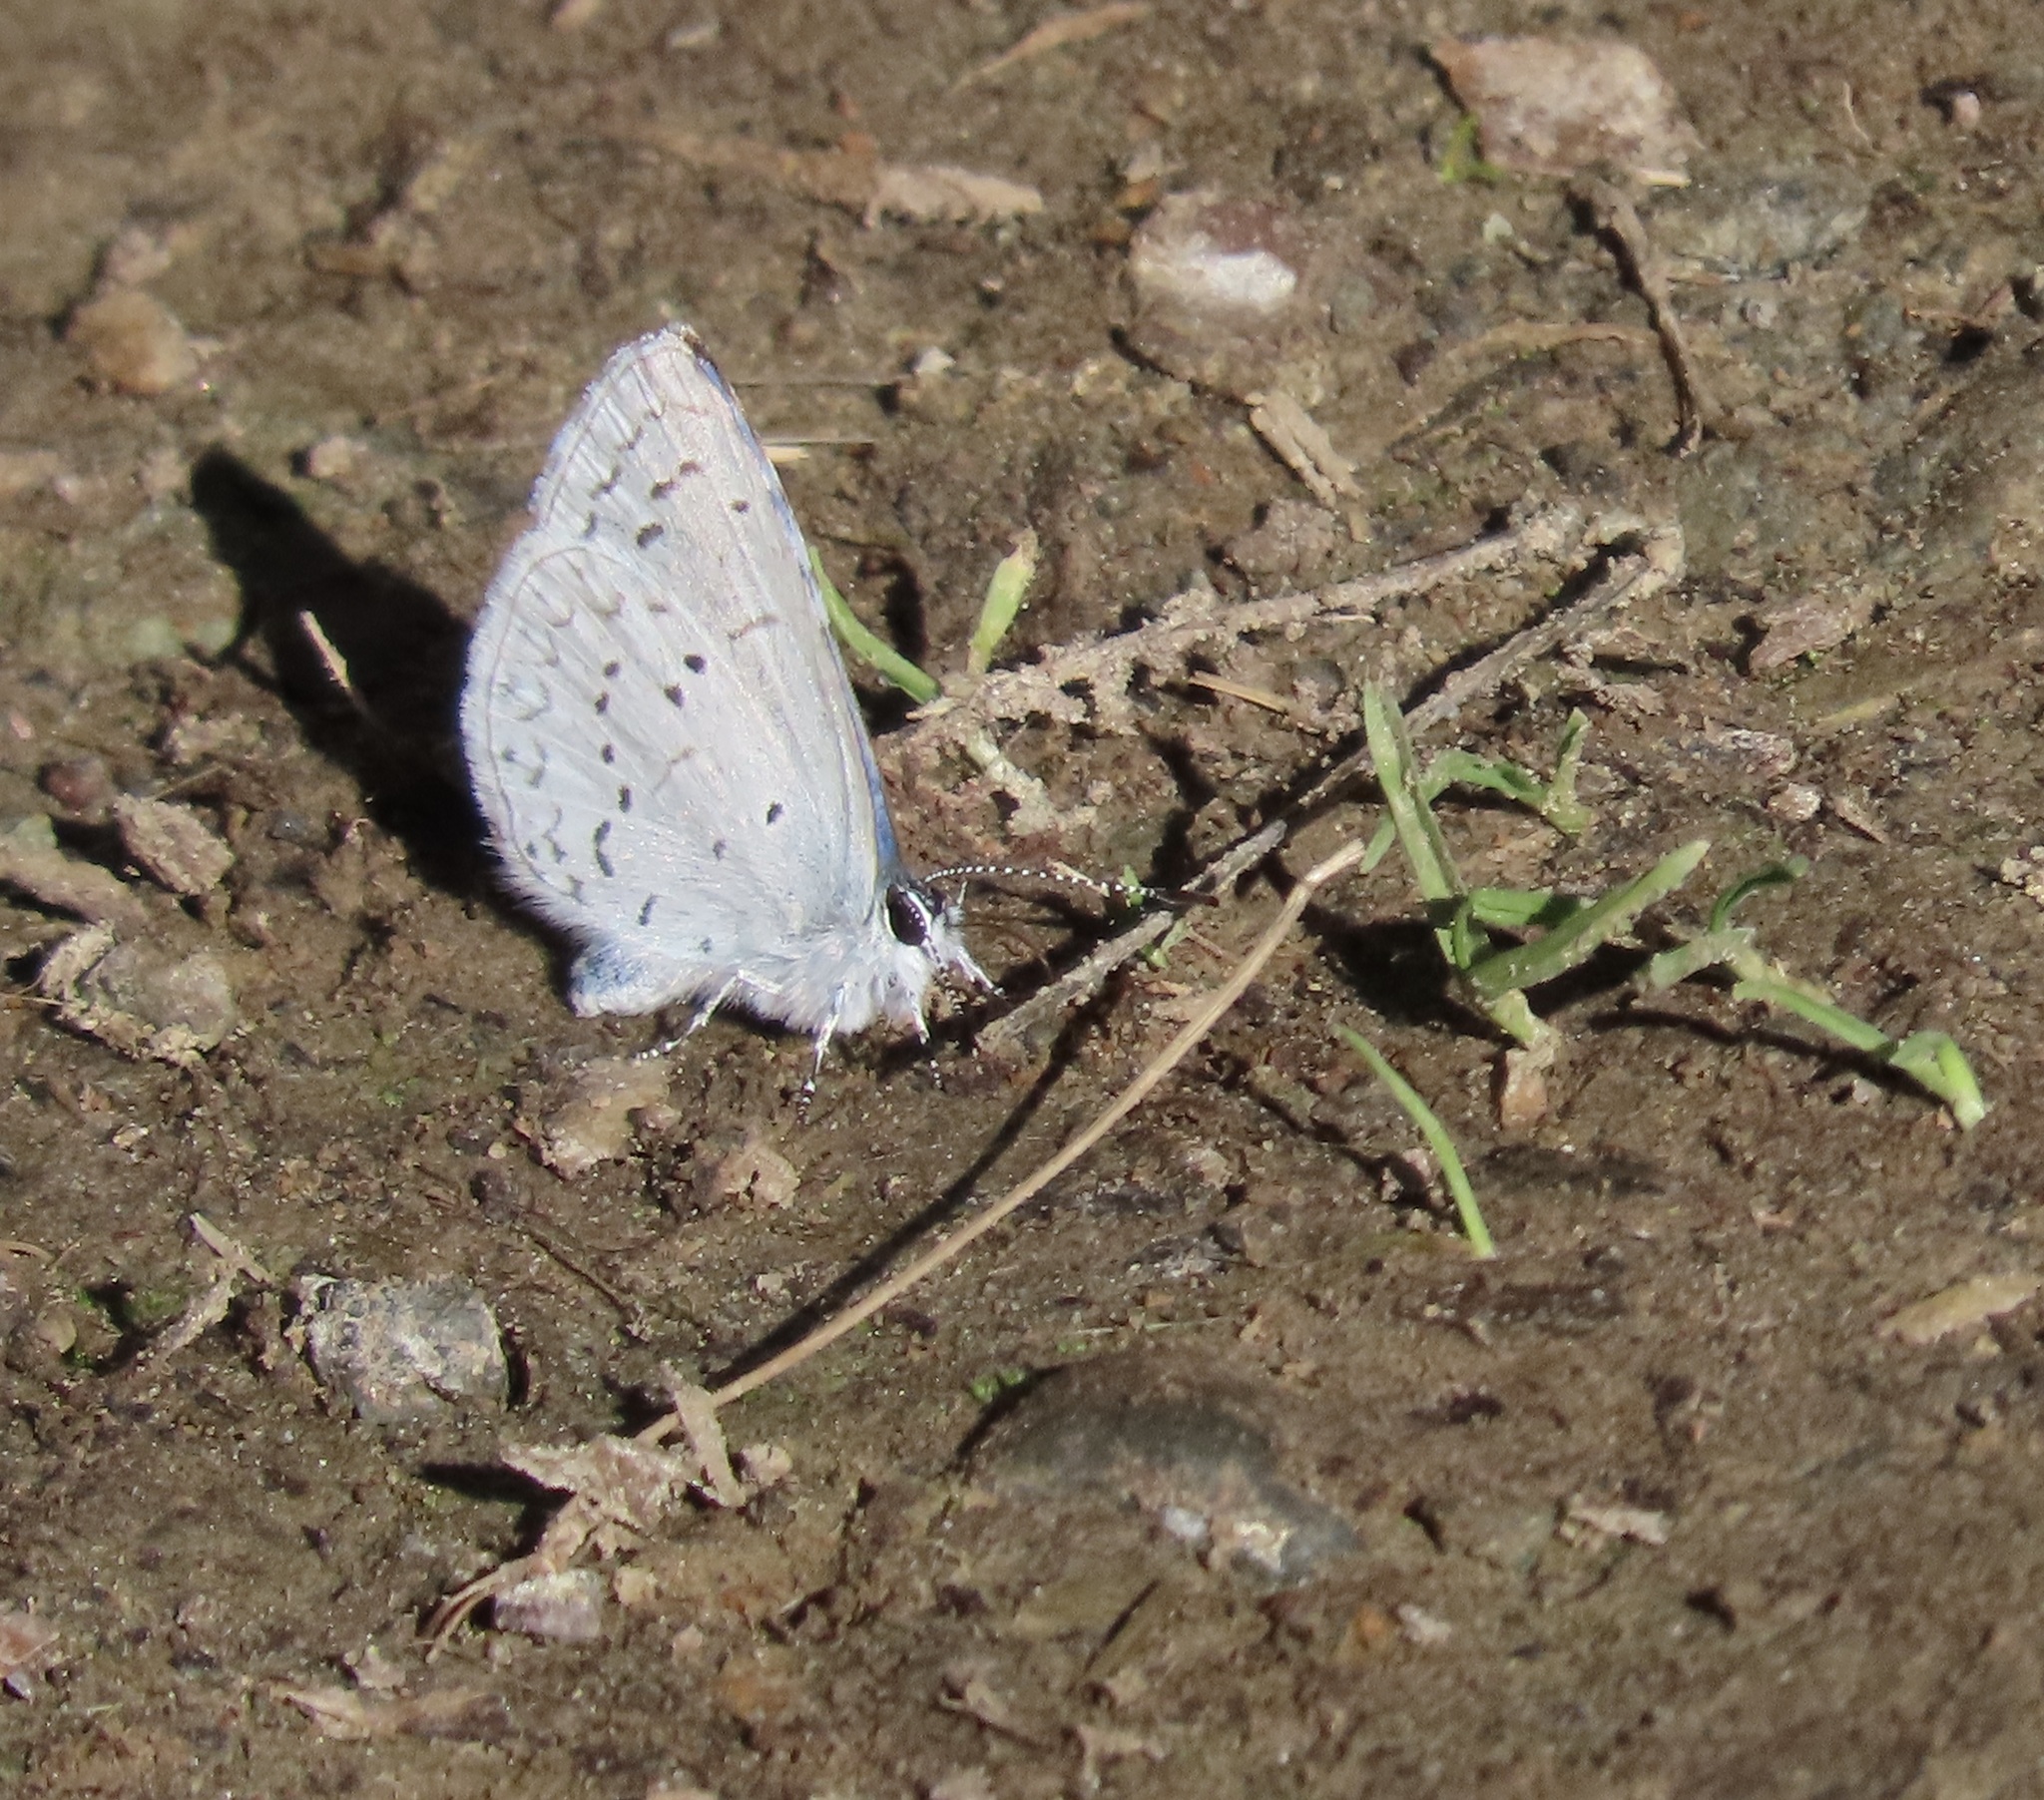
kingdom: Animalia
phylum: Arthropoda
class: Insecta
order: Lepidoptera
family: Lycaenidae
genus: Celastrina
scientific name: Celastrina ladon
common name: Spring azure
